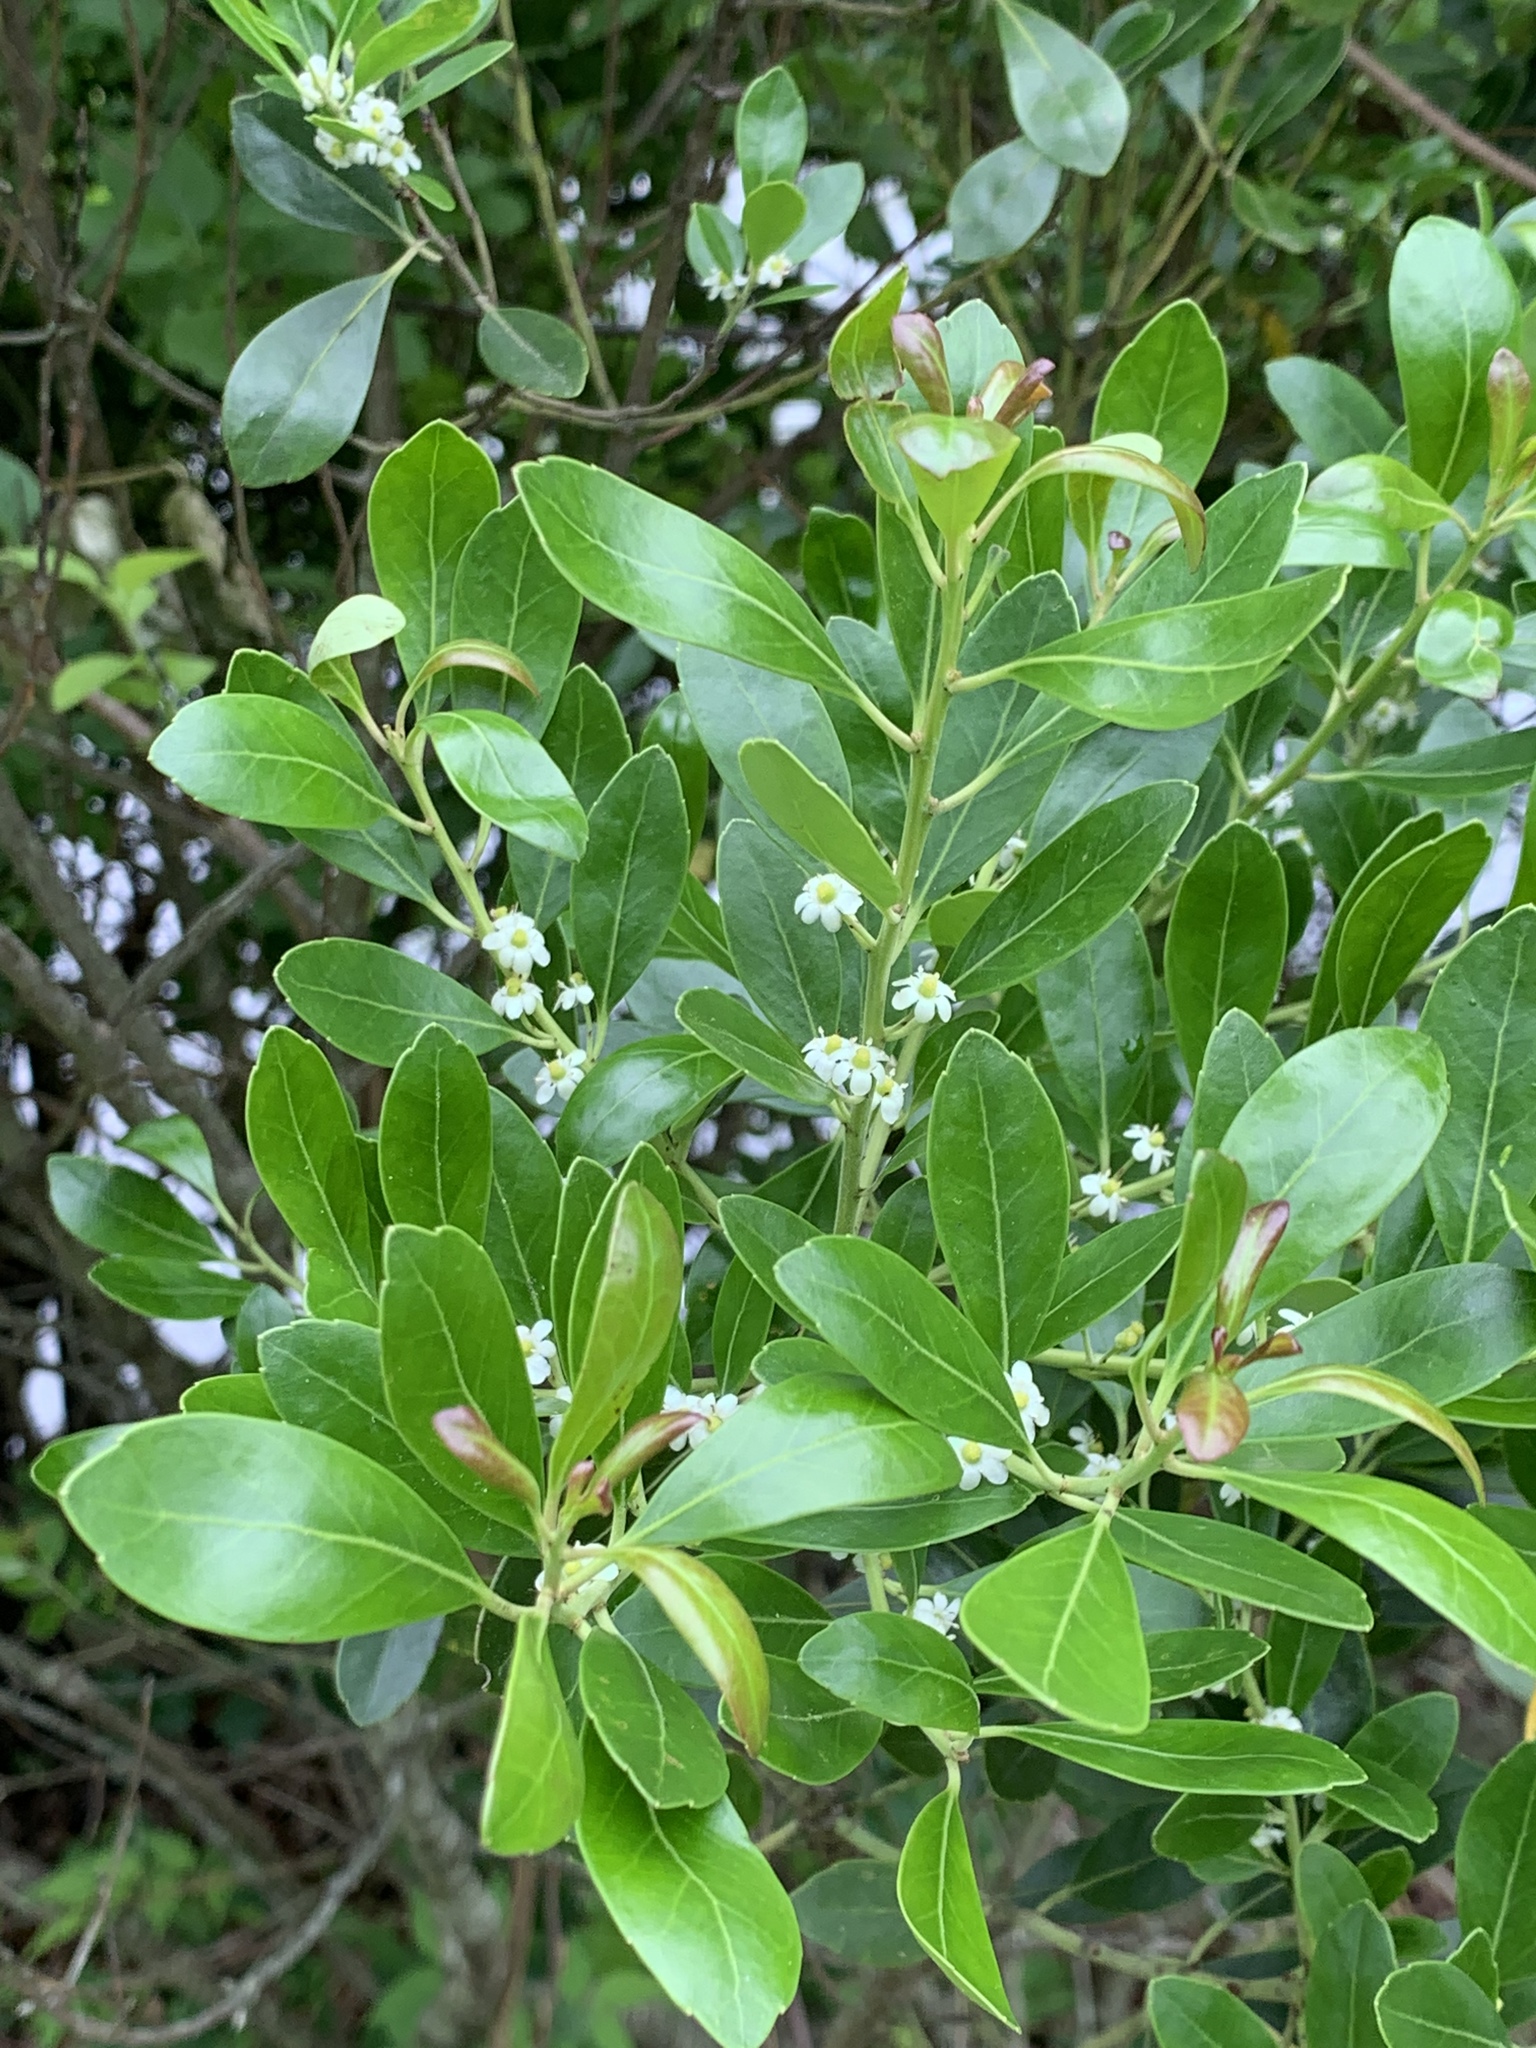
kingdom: Plantae
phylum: Tracheophyta
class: Magnoliopsida
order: Aquifoliales
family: Aquifoliaceae
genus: Ilex
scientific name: Ilex glabra
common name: Bitter gallberry
